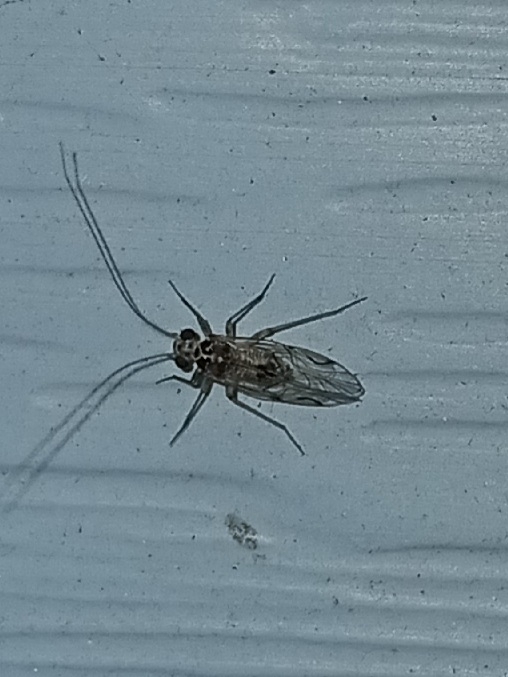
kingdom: Animalia
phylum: Arthropoda
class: Insecta
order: Psocodea
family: Psocidae
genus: Metylophorus
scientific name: Metylophorus purus
